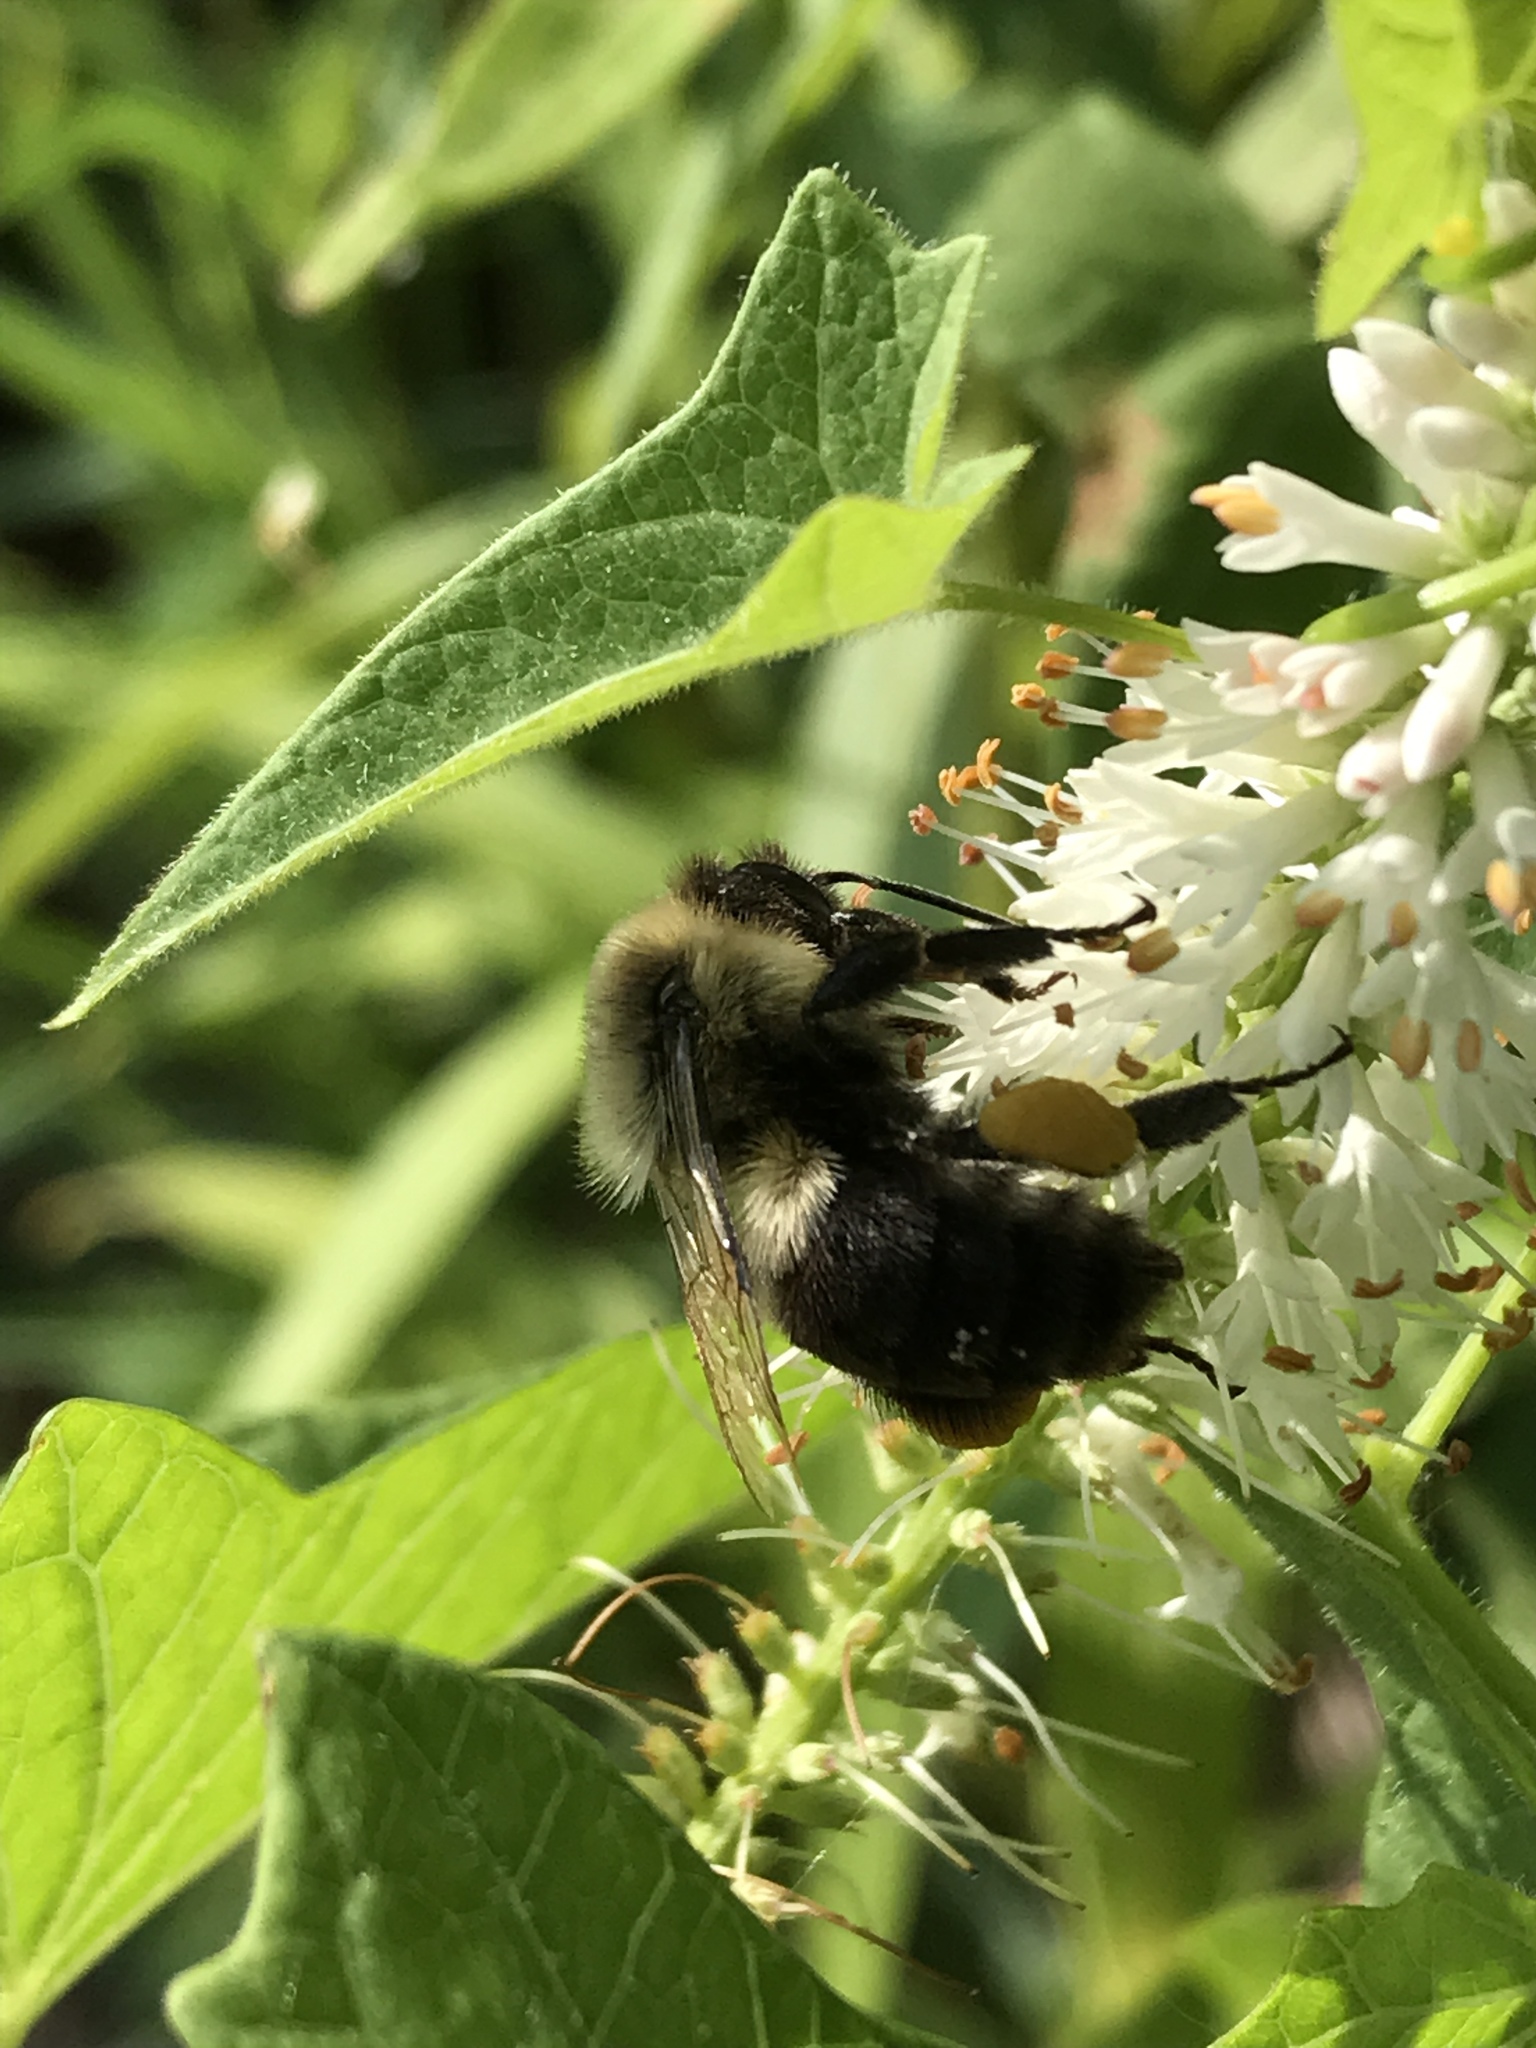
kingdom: Animalia
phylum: Arthropoda
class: Insecta
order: Hymenoptera
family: Apidae
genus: Bombus
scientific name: Bombus impatiens
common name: Common eastern bumble bee
